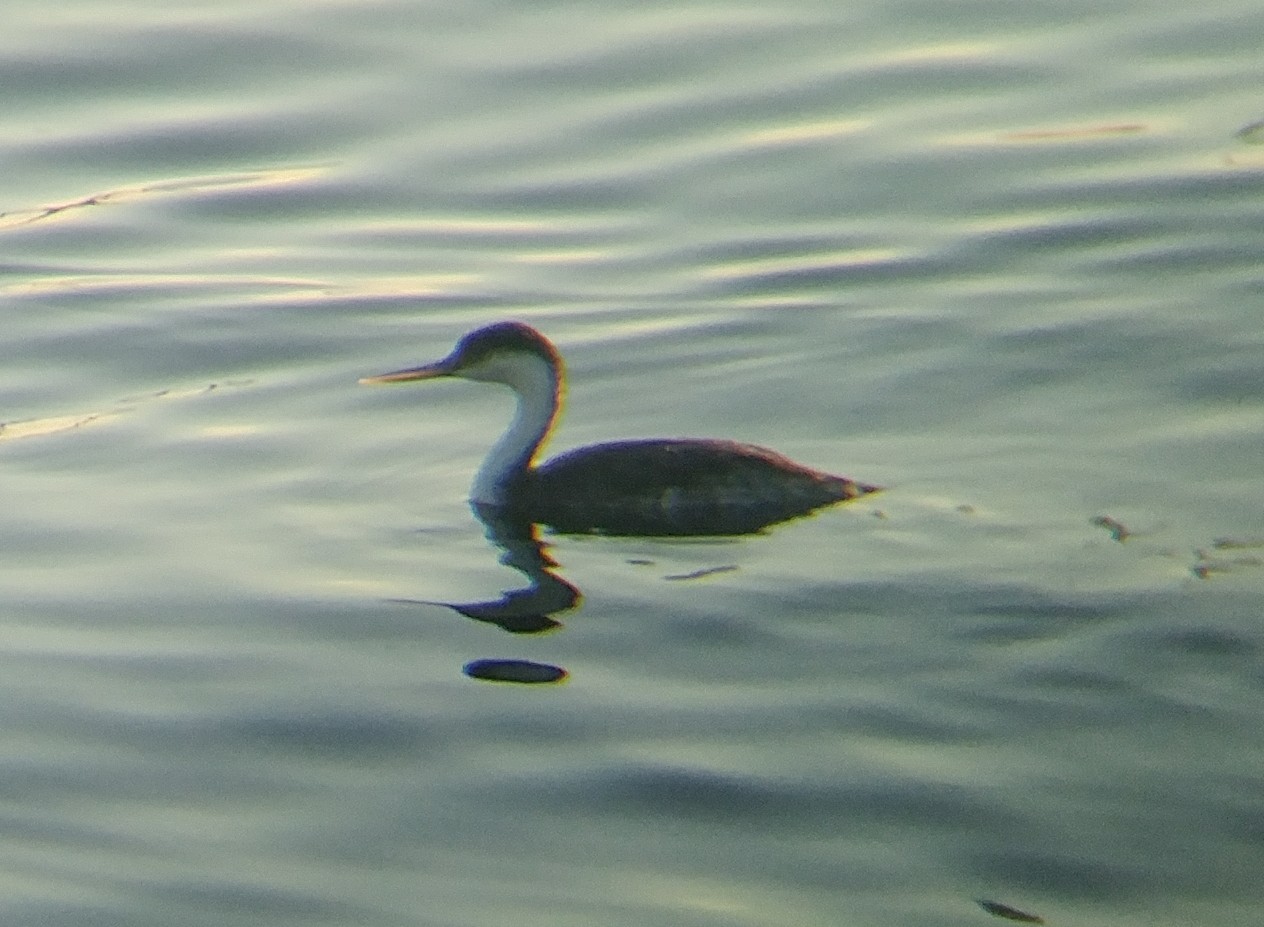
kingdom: Animalia
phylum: Chordata
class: Aves
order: Podicipediformes
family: Podicipedidae
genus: Aechmophorus
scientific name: Aechmophorus occidentalis
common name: Western grebe
